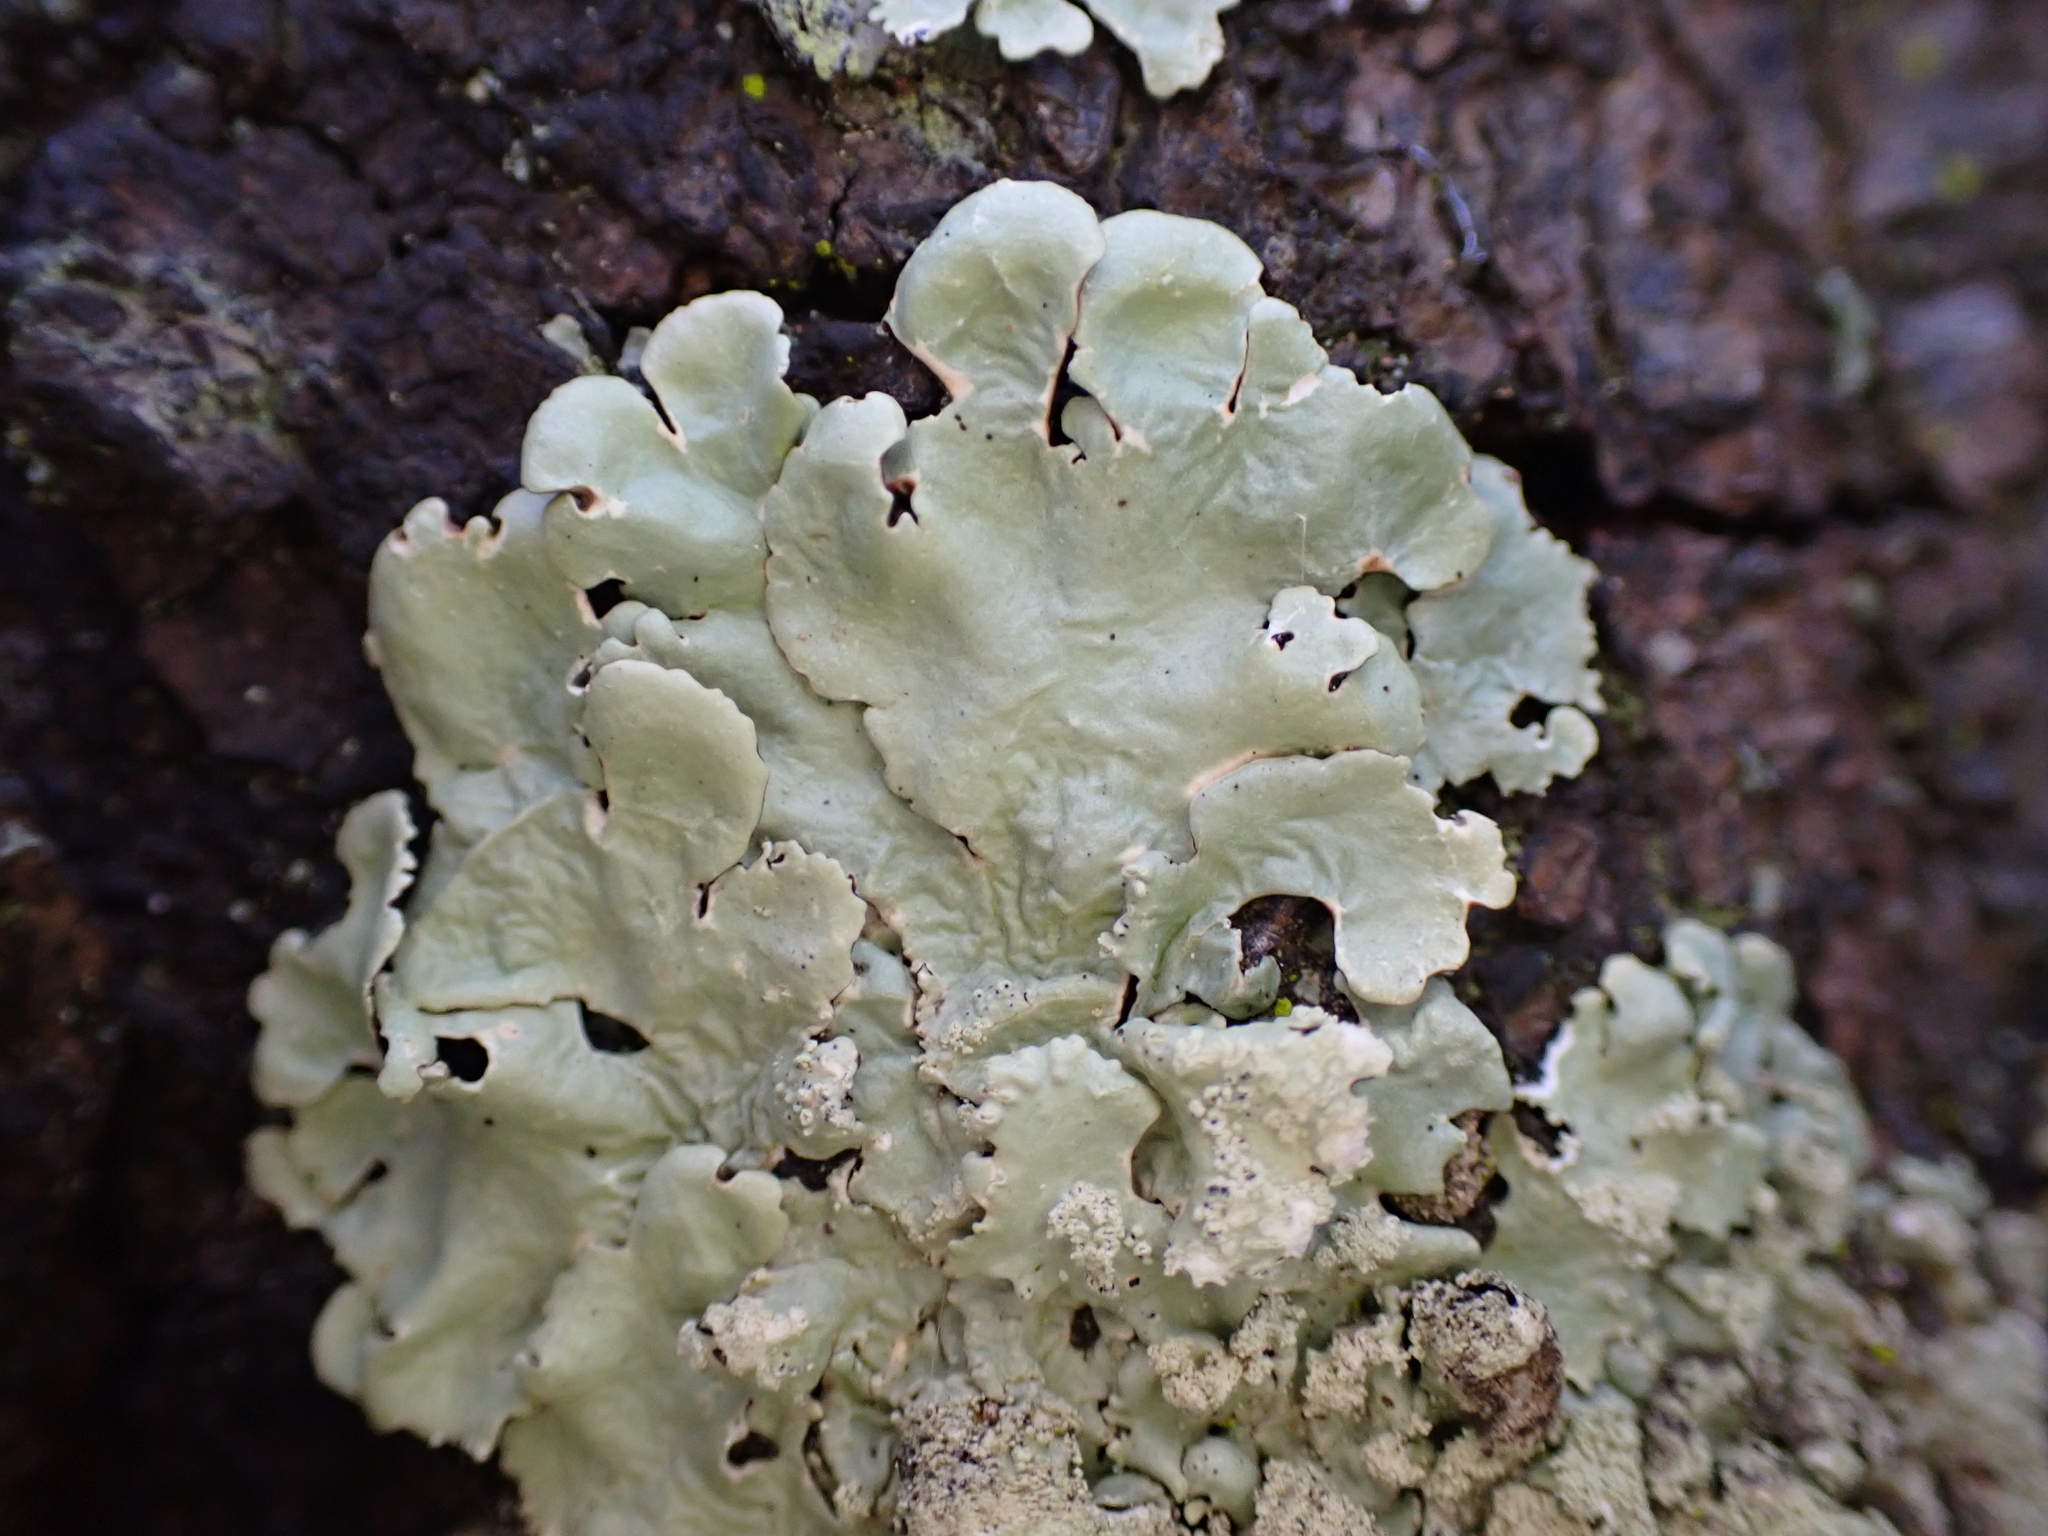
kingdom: Fungi
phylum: Ascomycota
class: Lecanoromycetes
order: Lecanorales
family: Parmeliaceae
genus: Flavoparmelia
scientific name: Flavoparmelia caperata
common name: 40-mile per hour lichen
